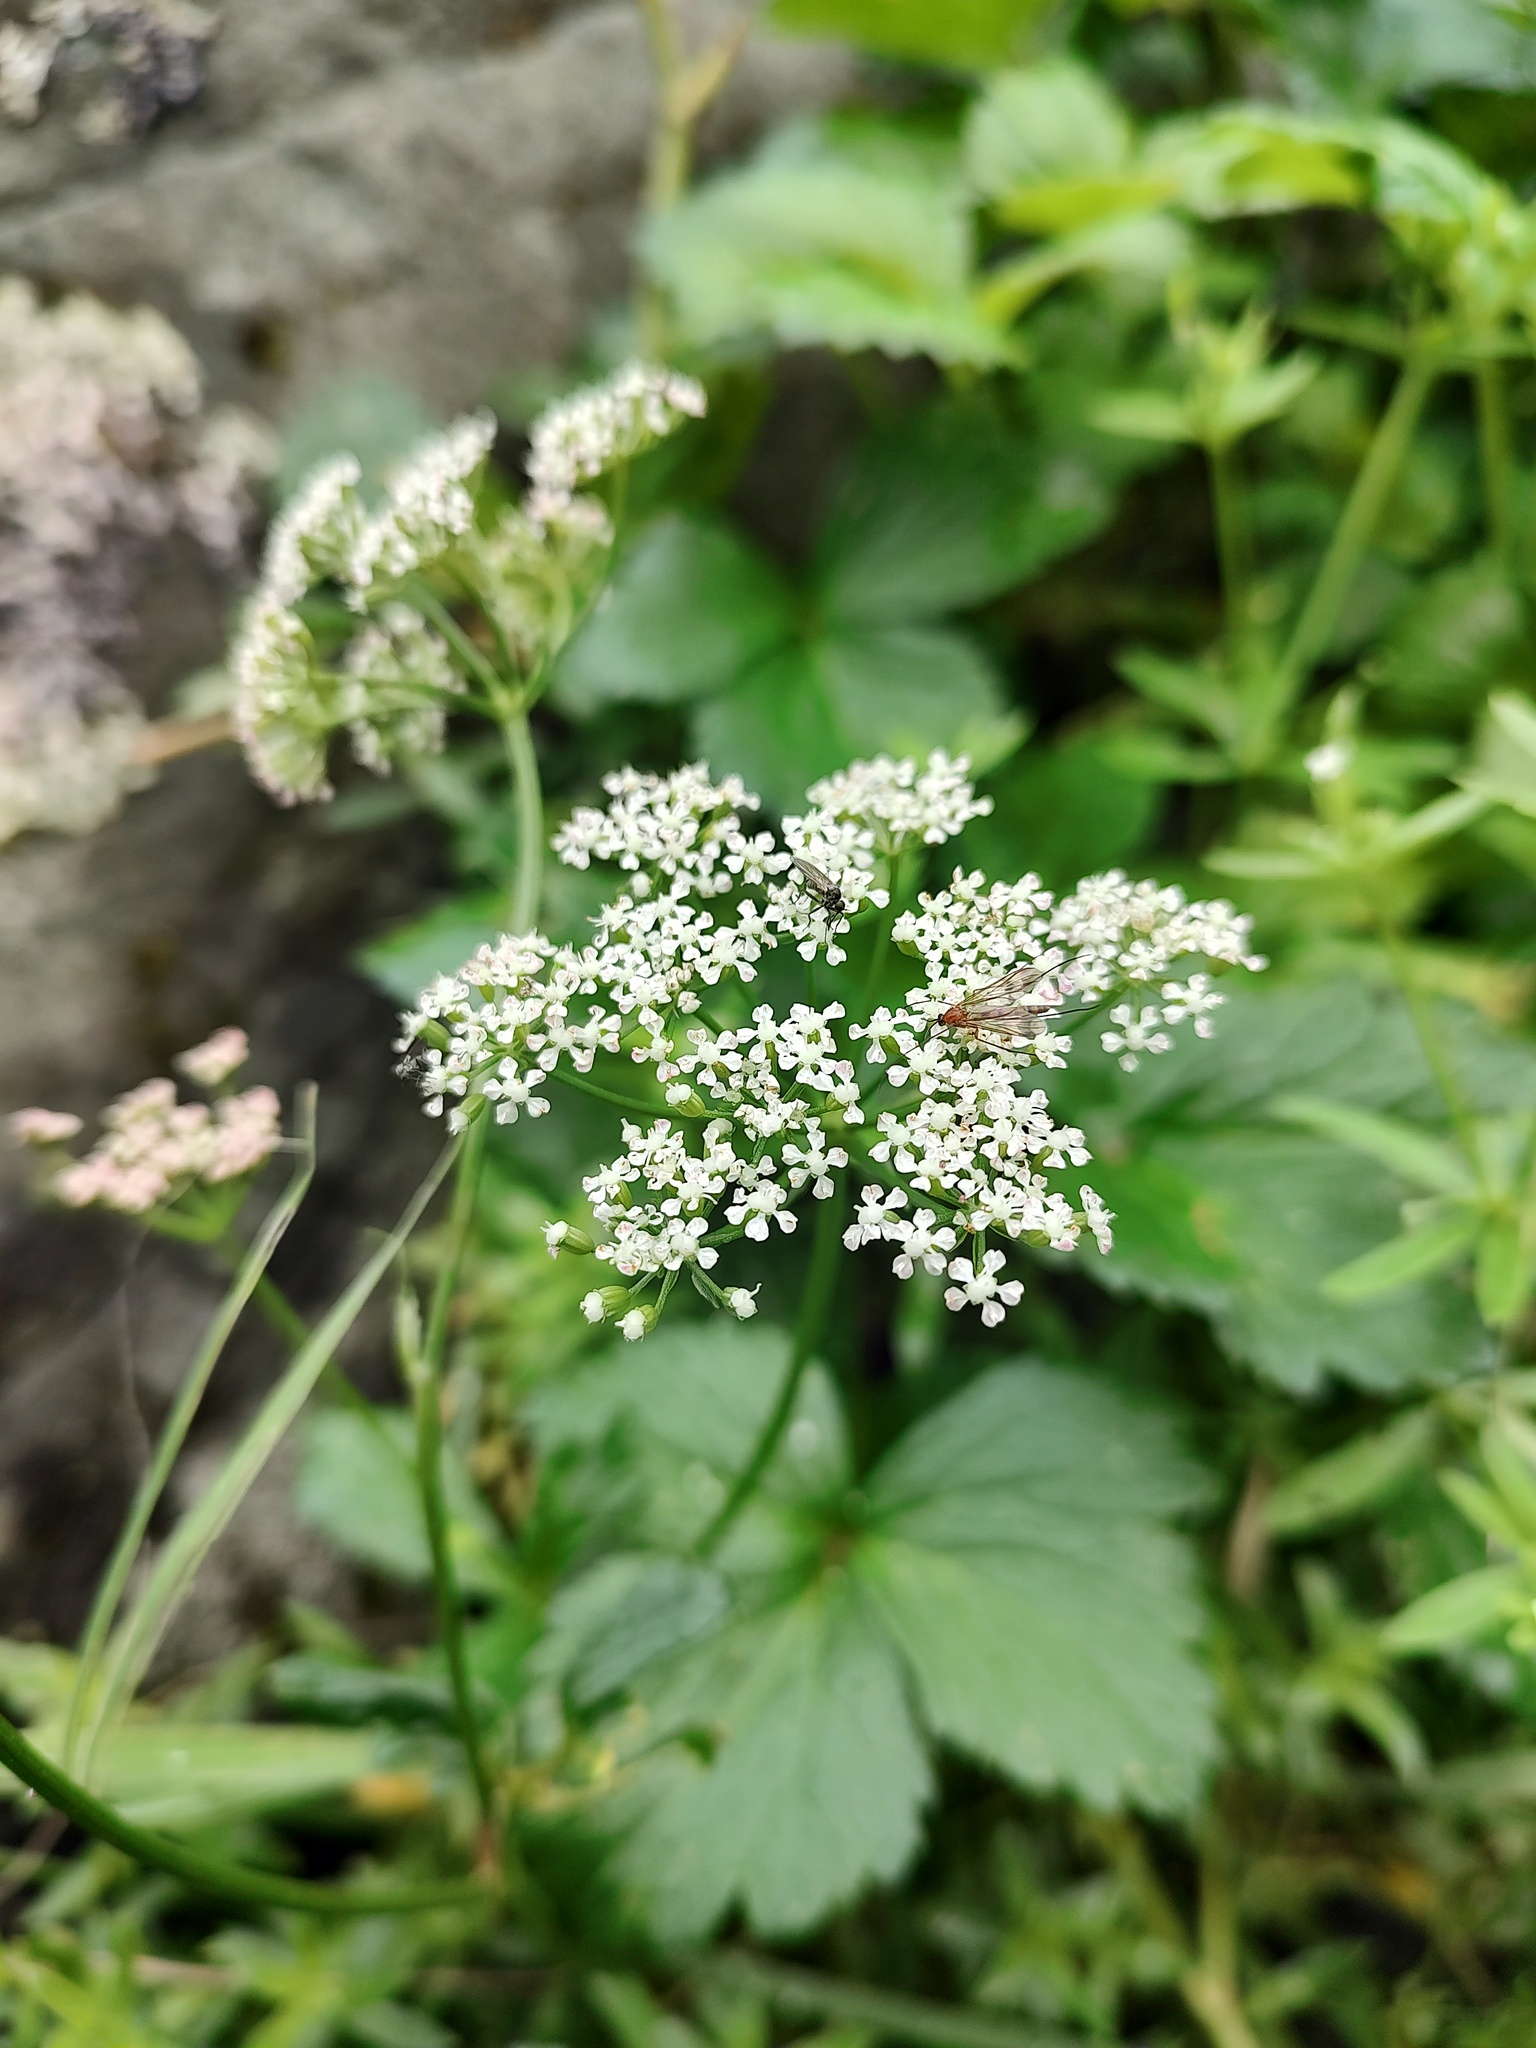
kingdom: Plantae
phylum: Tracheophyta
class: Magnoliopsida
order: Apiales
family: Apiaceae
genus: Ligusticum
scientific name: Ligusticum scothicum
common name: Beach lovage
